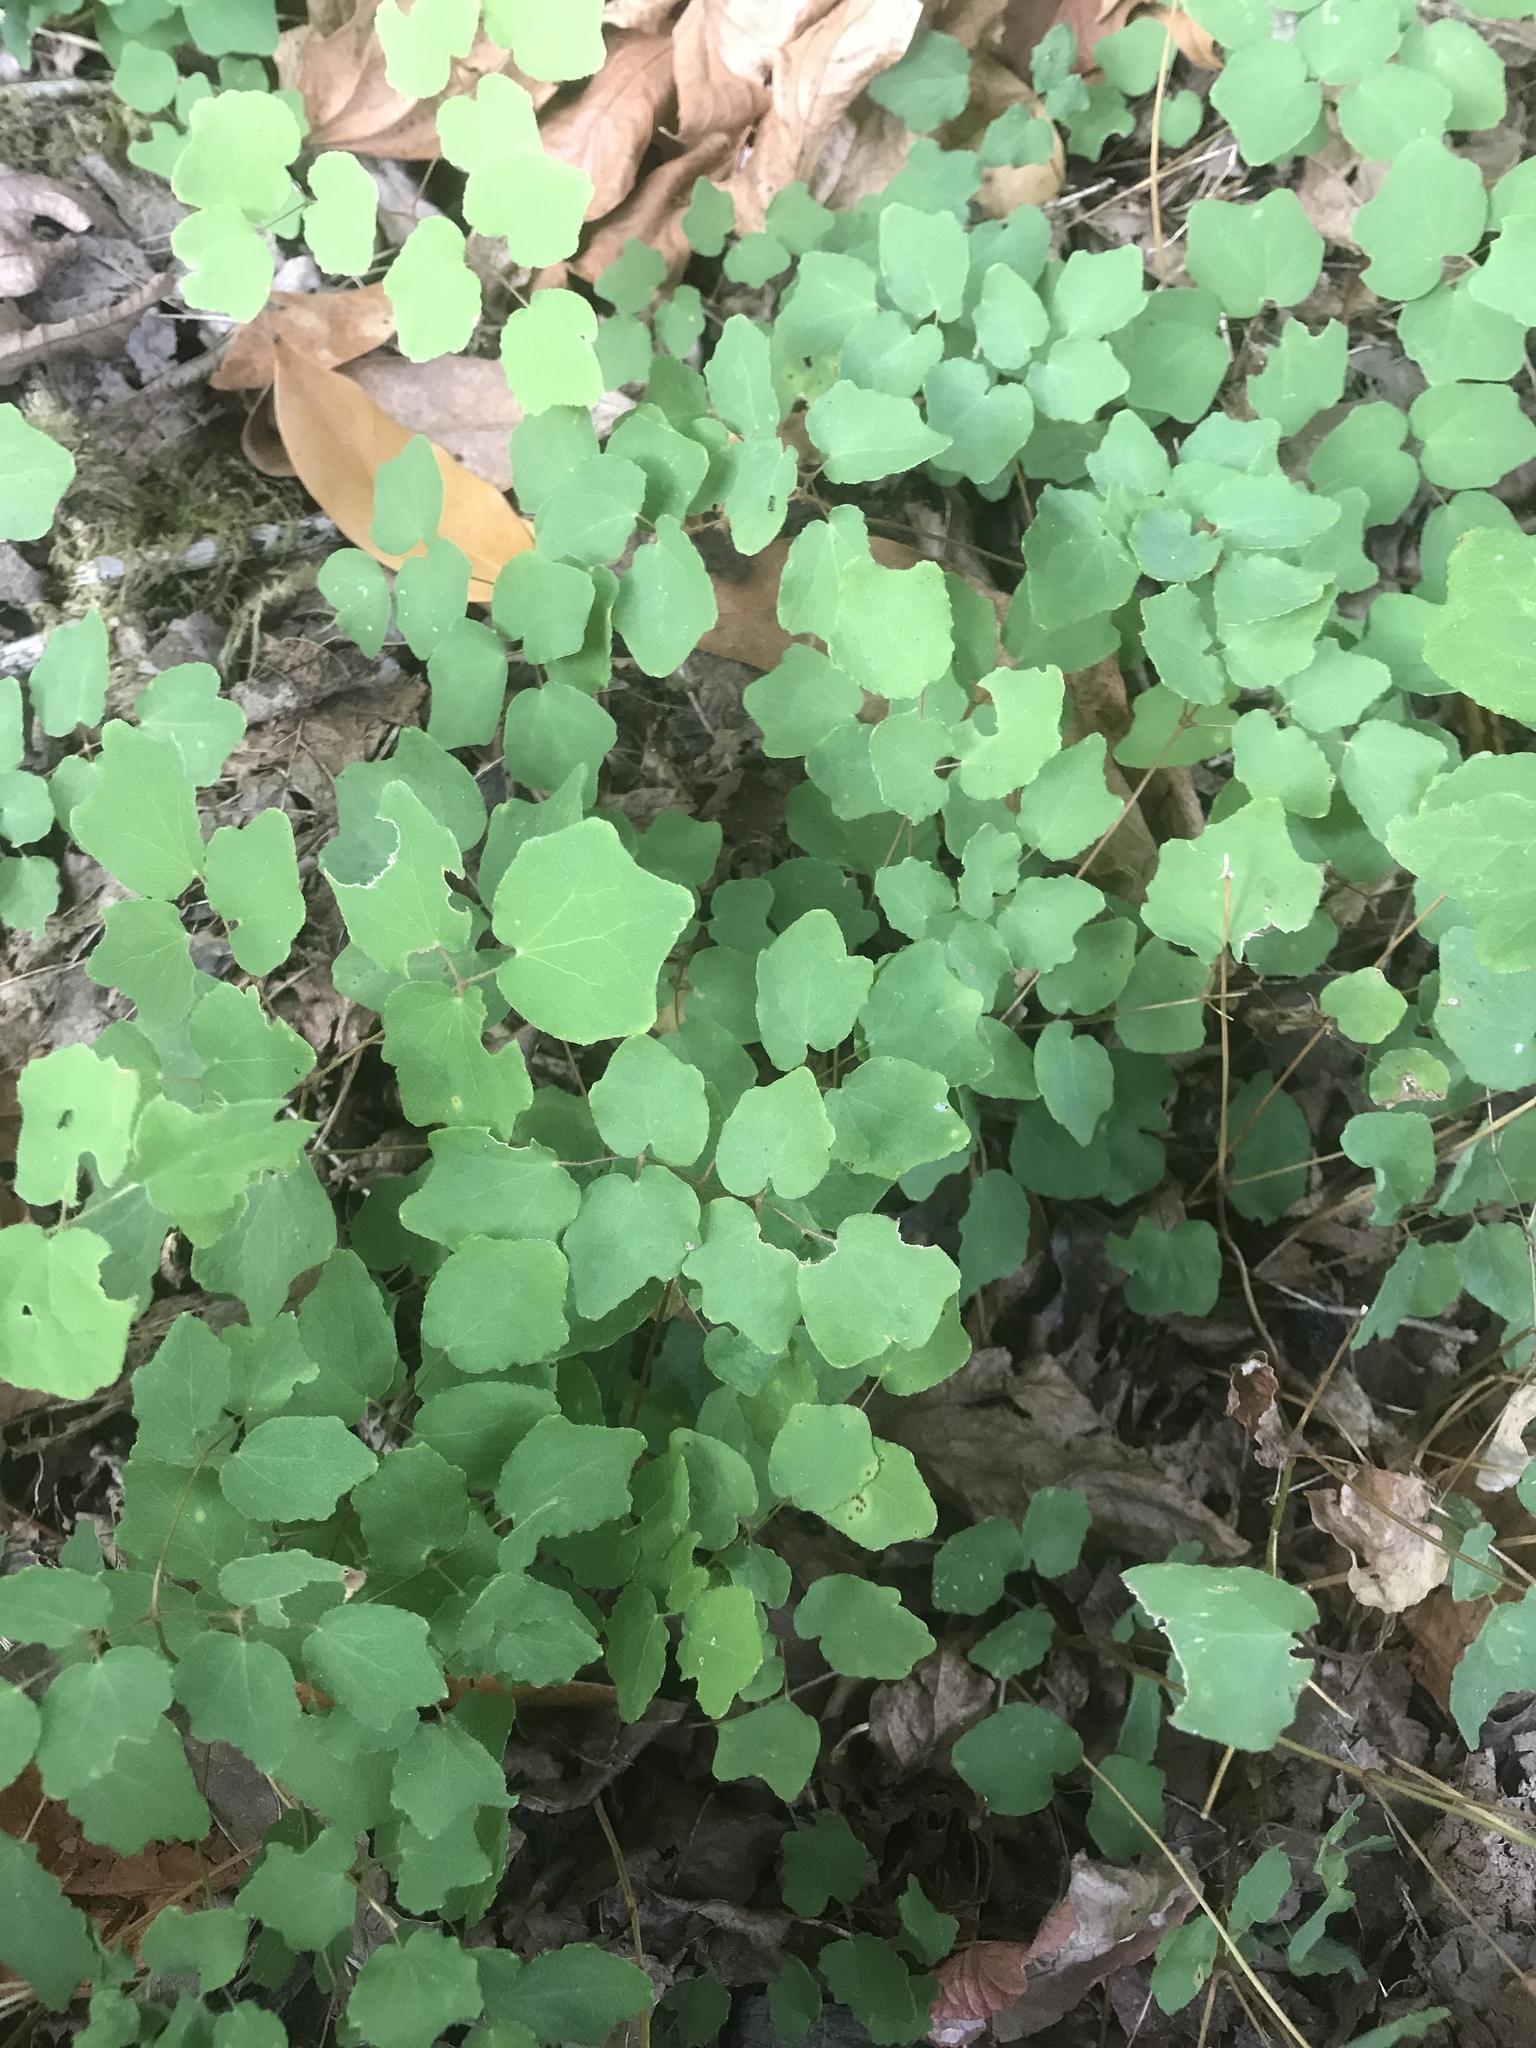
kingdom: Plantae
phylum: Tracheophyta
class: Magnoliopsida
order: Ranunculales
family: Berberidaceae
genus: Vancouveria
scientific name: Vancouveria hexandra
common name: Northern inside-out-flower
